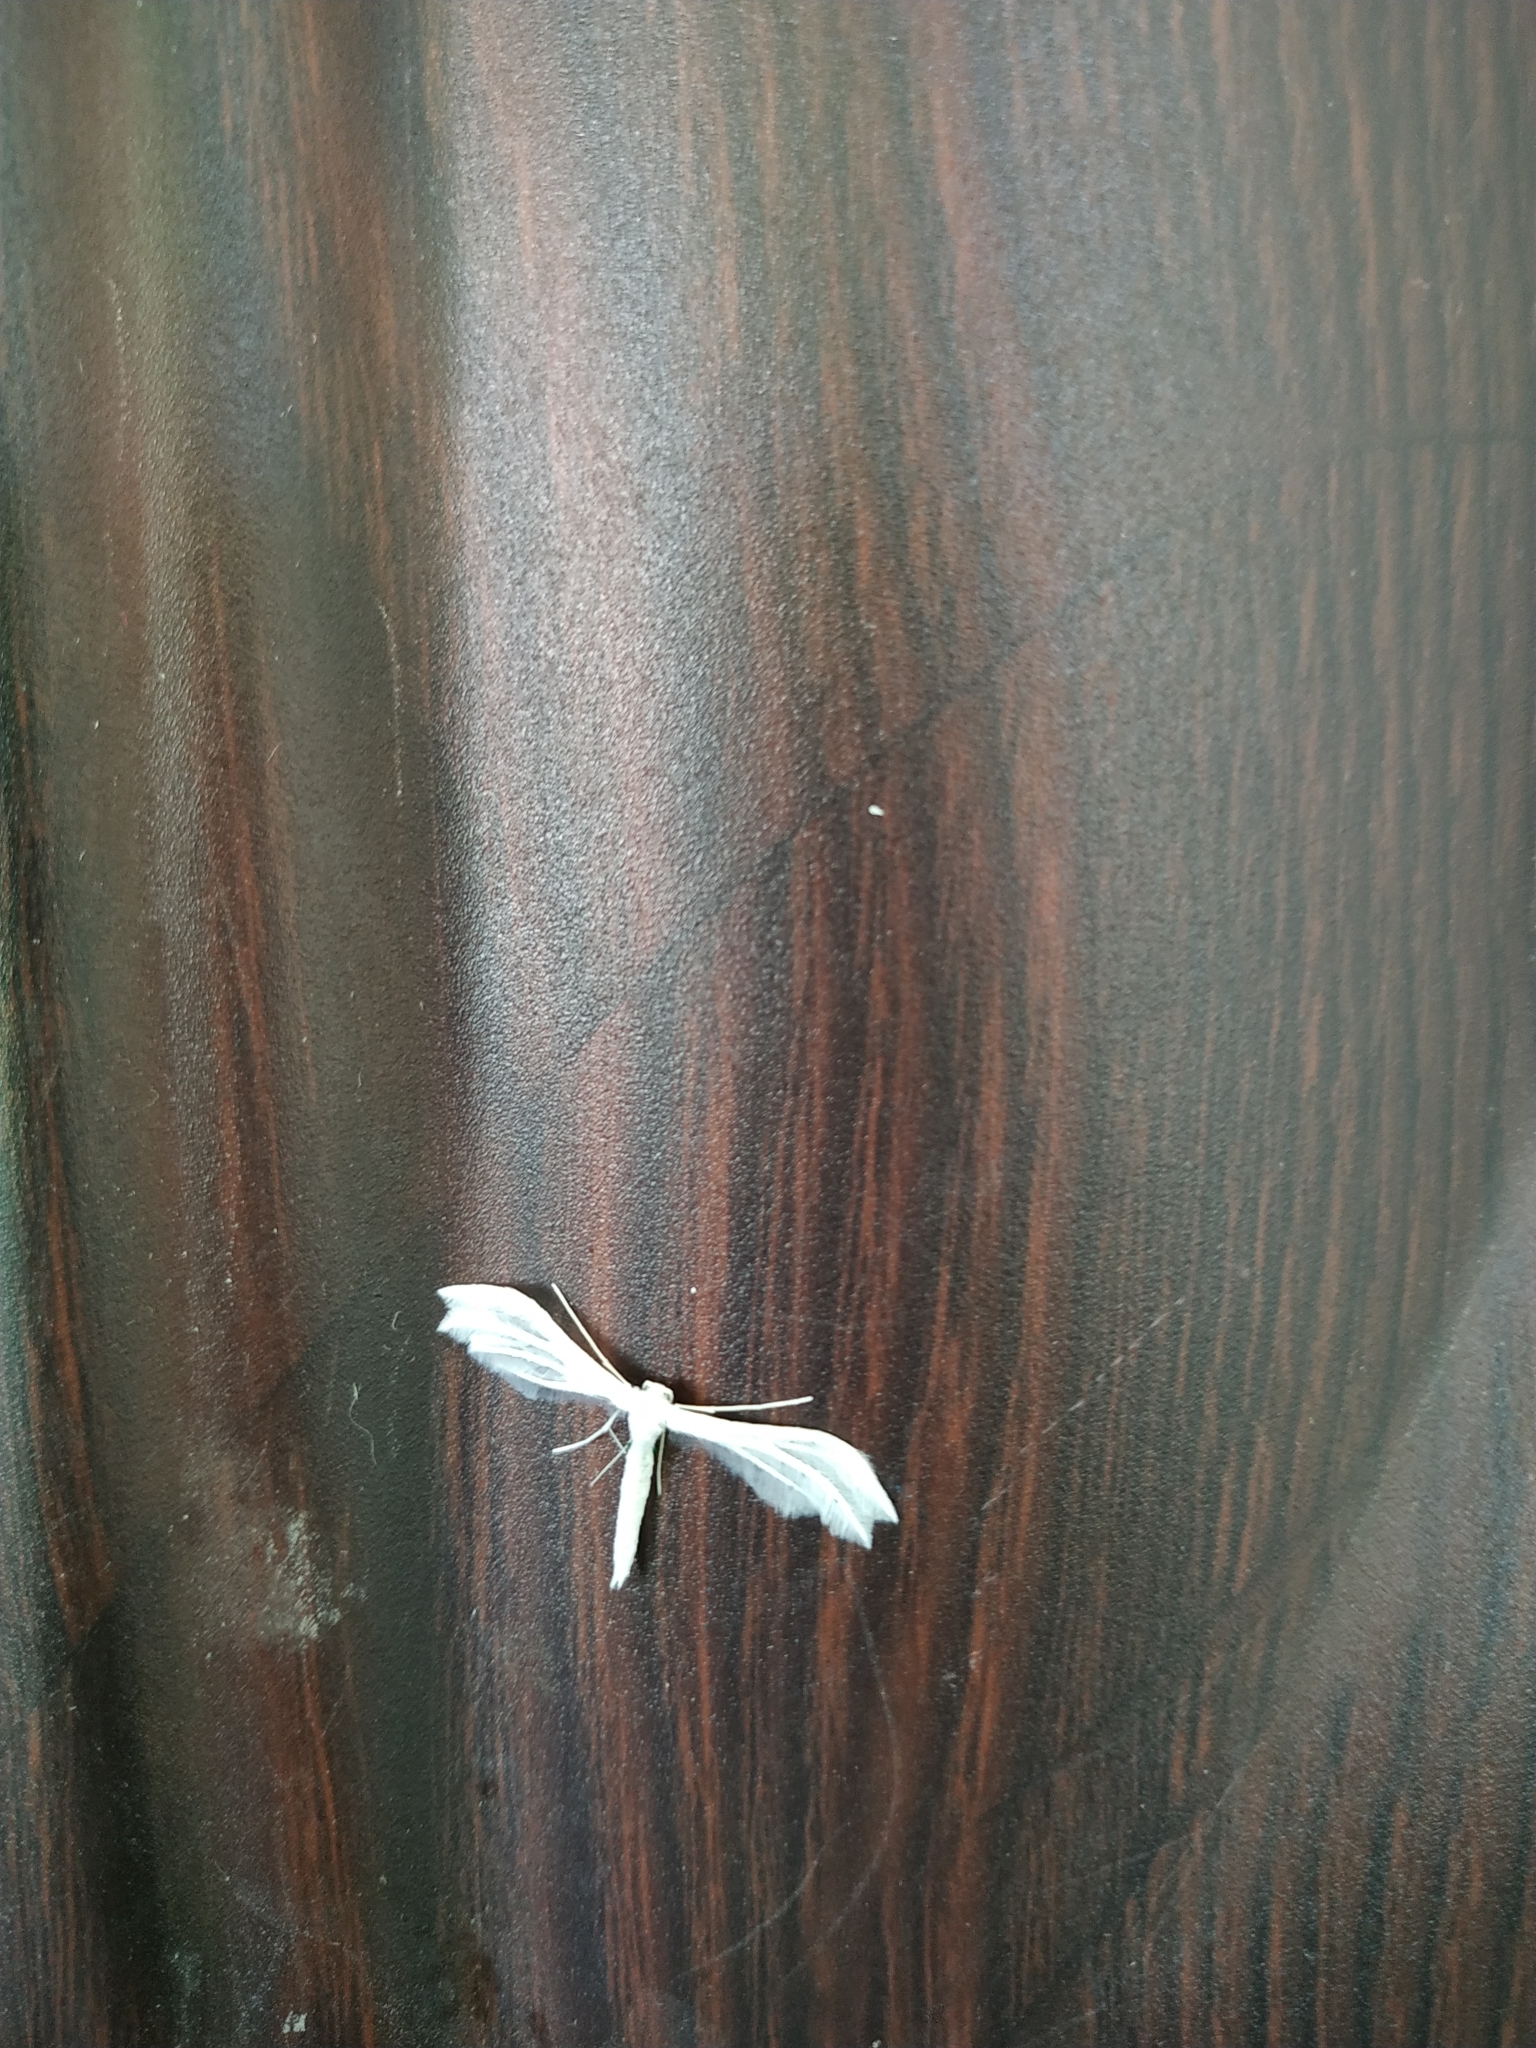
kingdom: Animalia
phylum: Arthropoda
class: Insecta
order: Lepidoptera
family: Pterophoridae
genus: Pterophorus
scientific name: Pterophorus pentadactyla
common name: White plume moth
